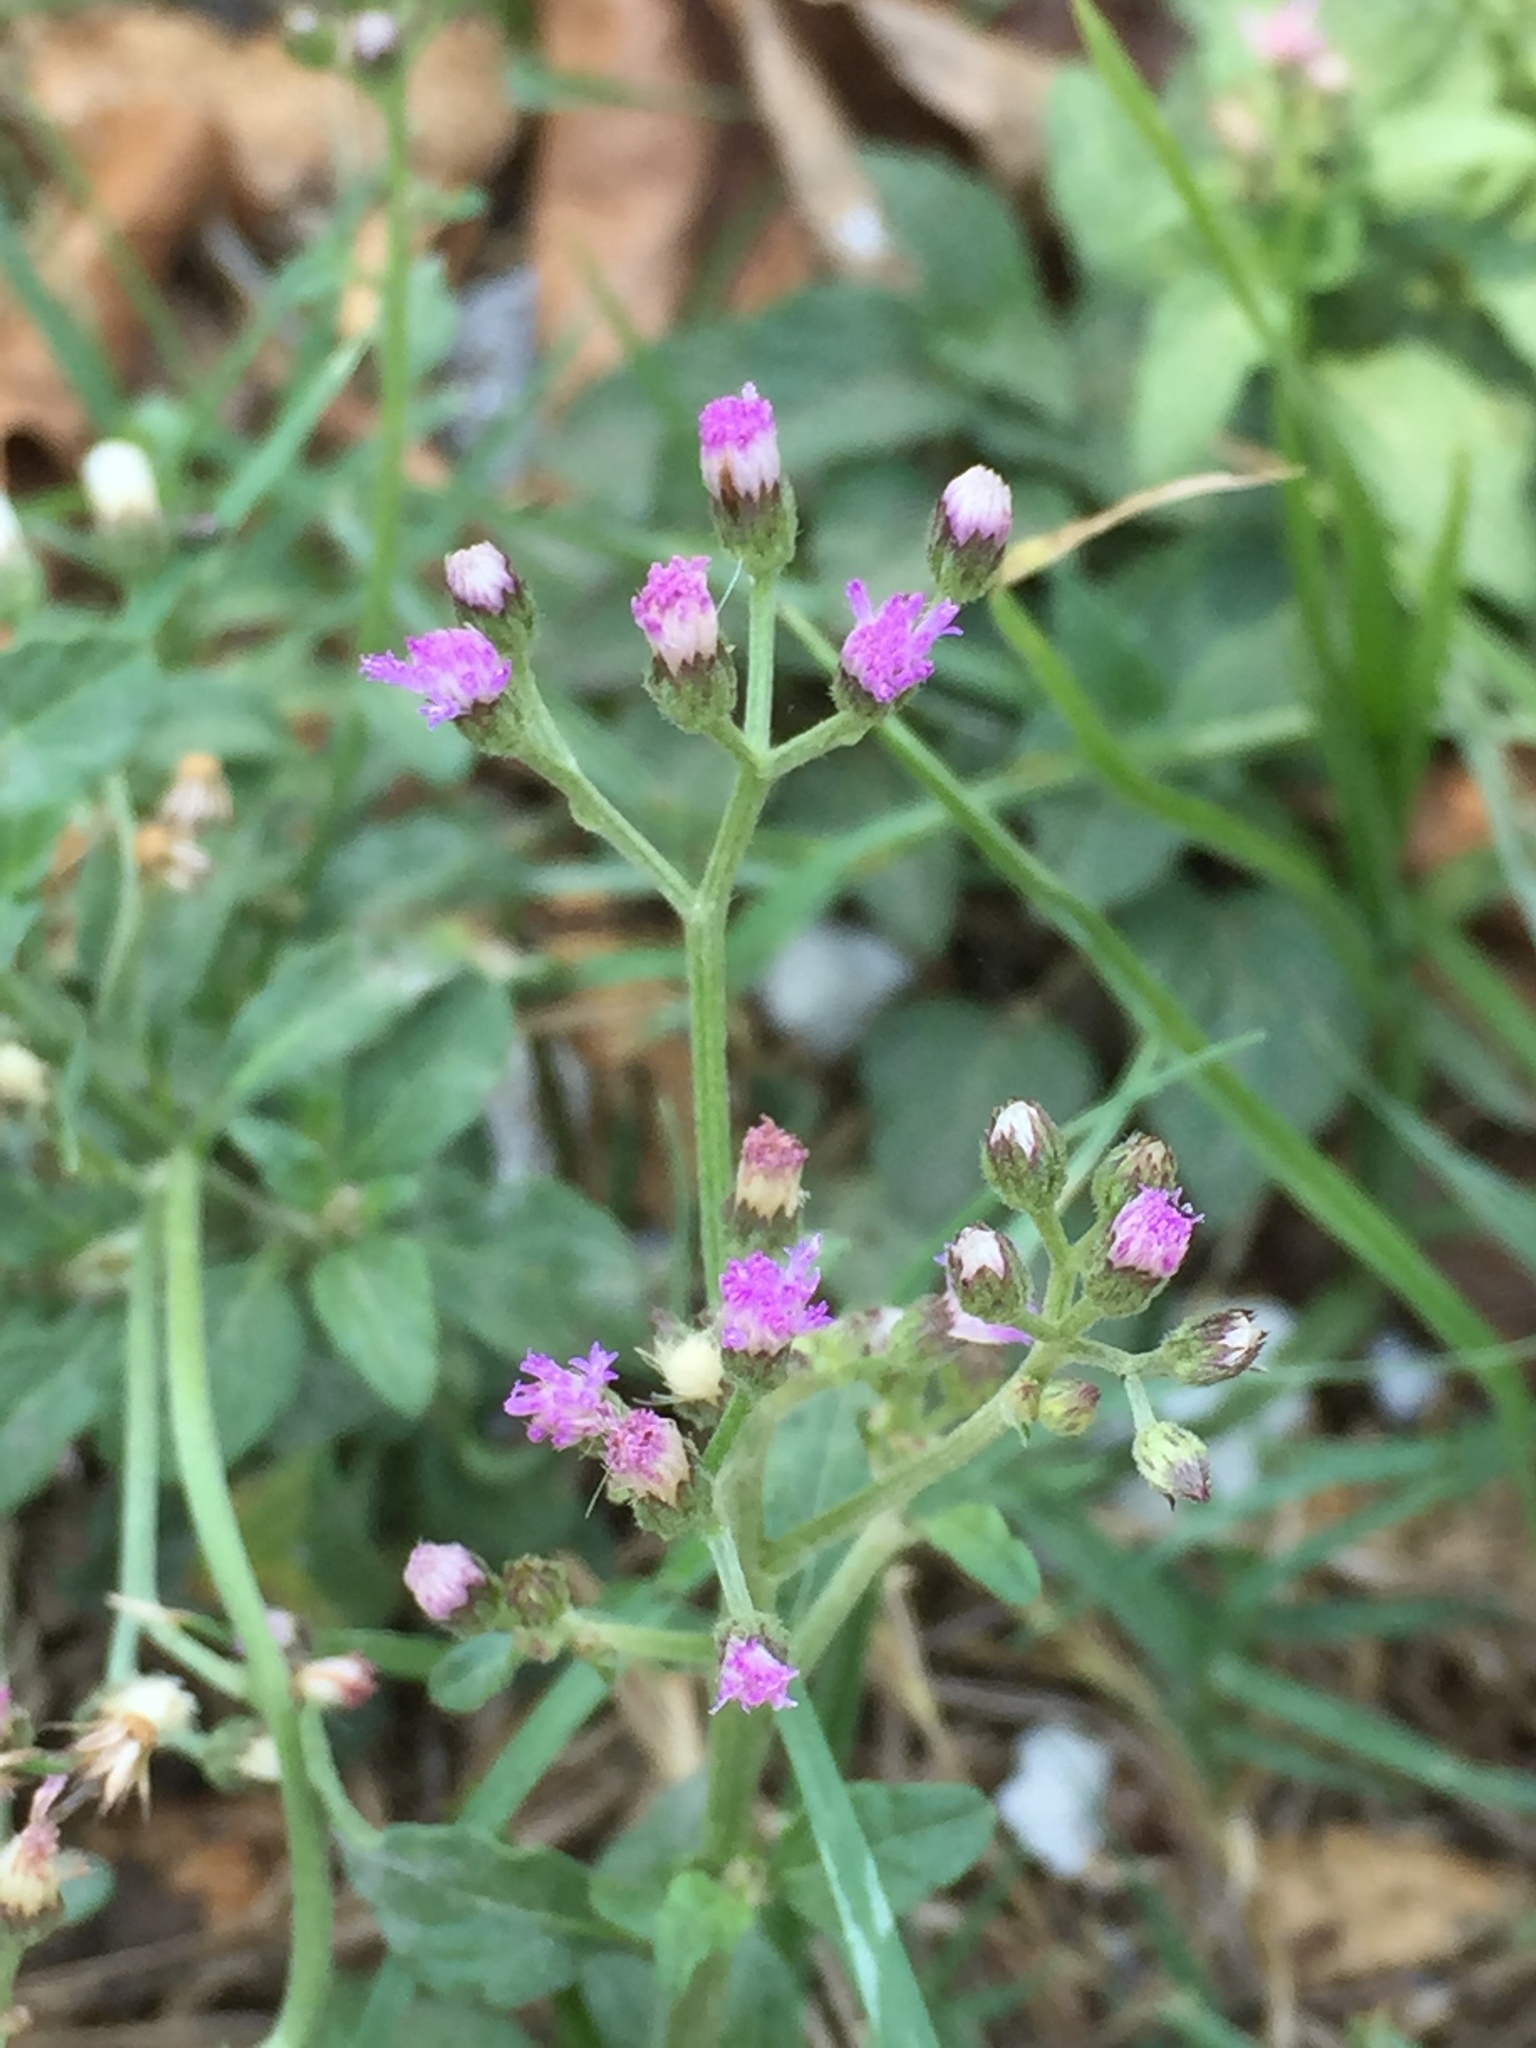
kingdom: Plantae
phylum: Tracheophyta
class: Magnoliopsida
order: Asterales
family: Asteraceae
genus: Cyanthillium
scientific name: Cyanthillium cinereum
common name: Little ironweed
